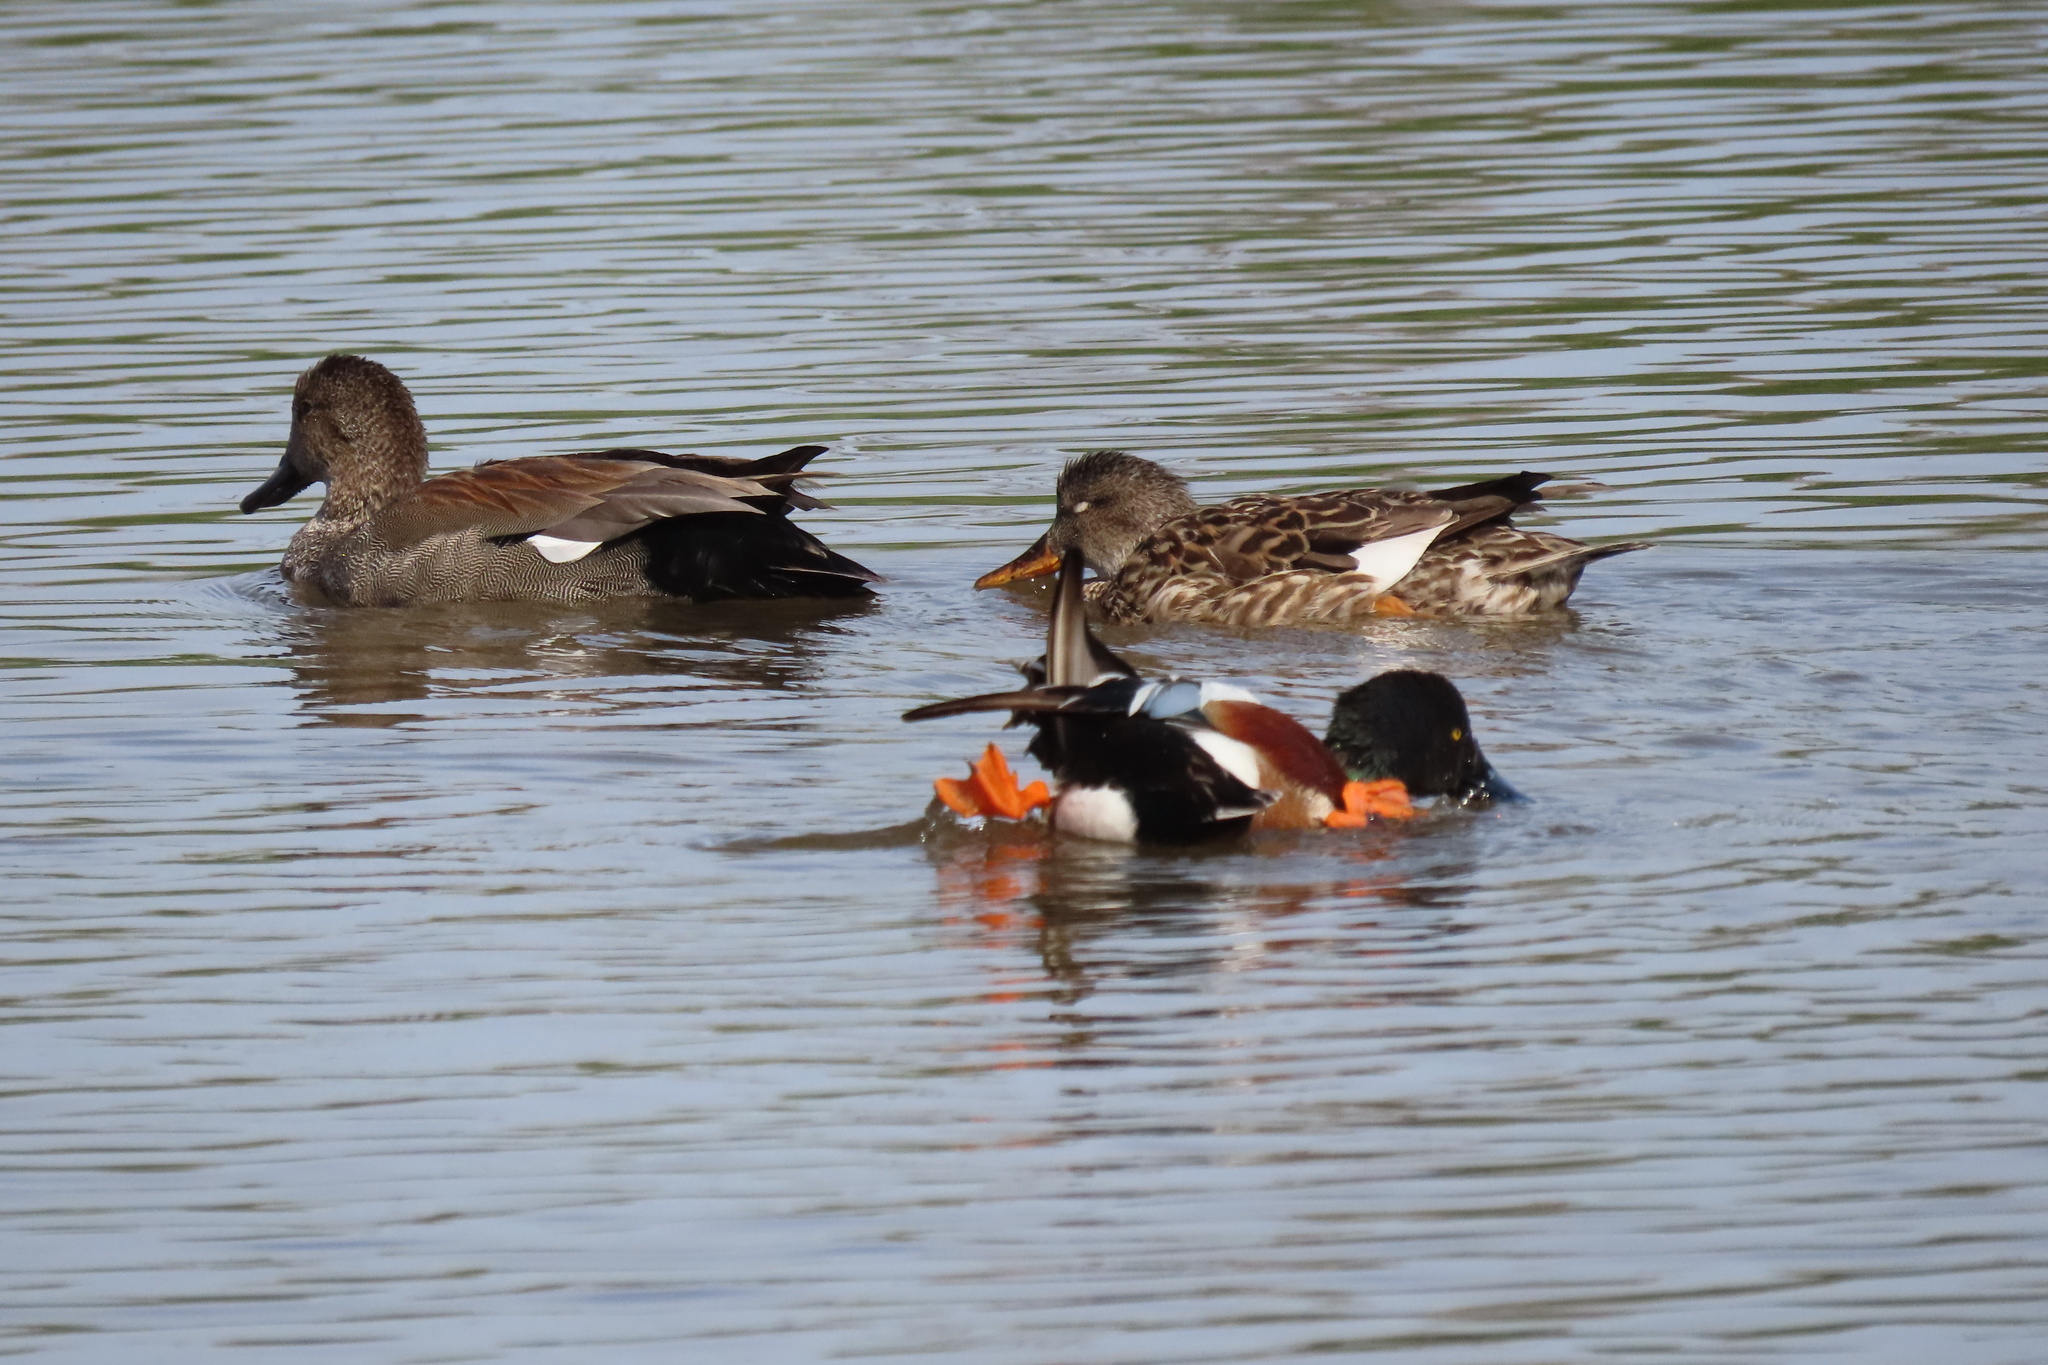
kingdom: Animalia
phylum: Chordata
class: Aves
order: Anseriformes
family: Anatidae
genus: Spatula
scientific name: Spatula clypeata
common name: Northern shoveler
